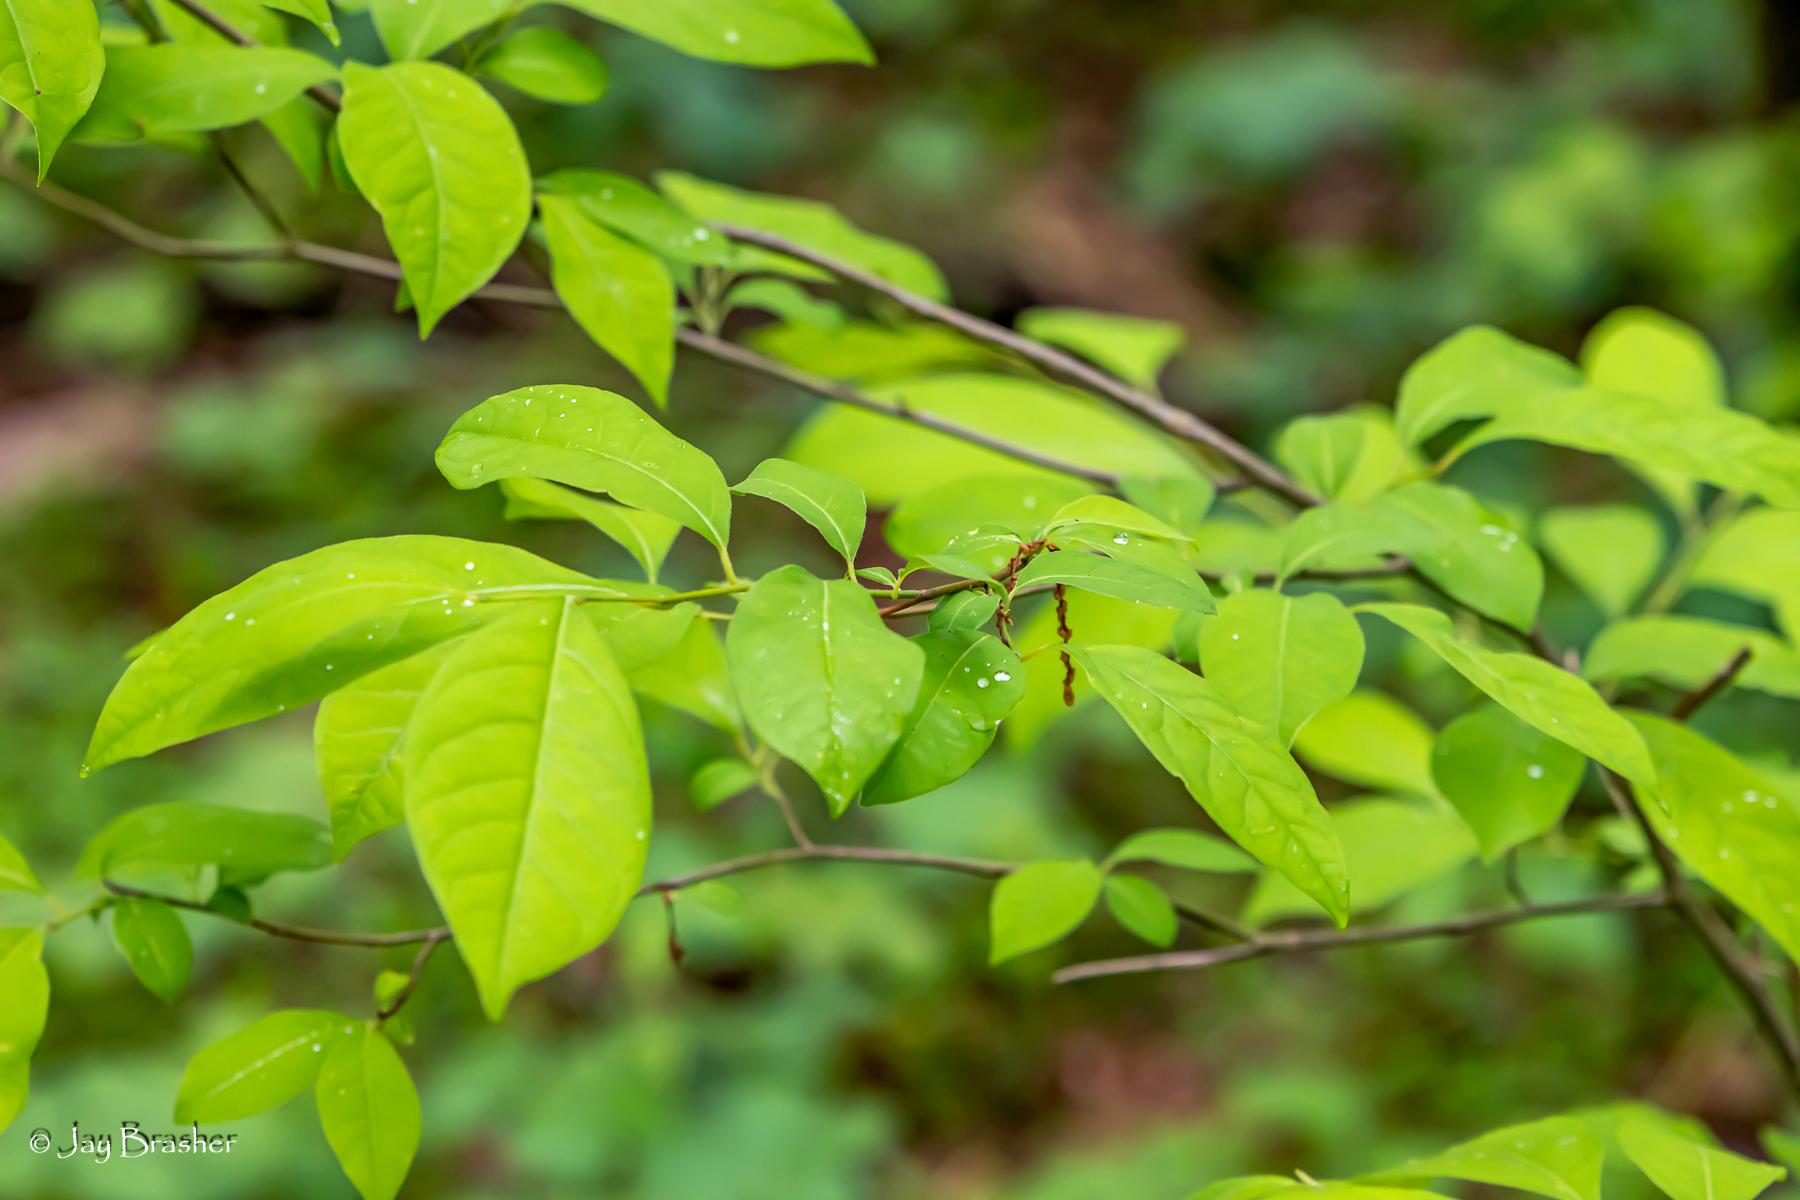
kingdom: Plantae
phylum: Tracheophyta
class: Magnoliopsida
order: Laurales
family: Lauraceae
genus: Lindera
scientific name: Lindera benzoin
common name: Spicebush
